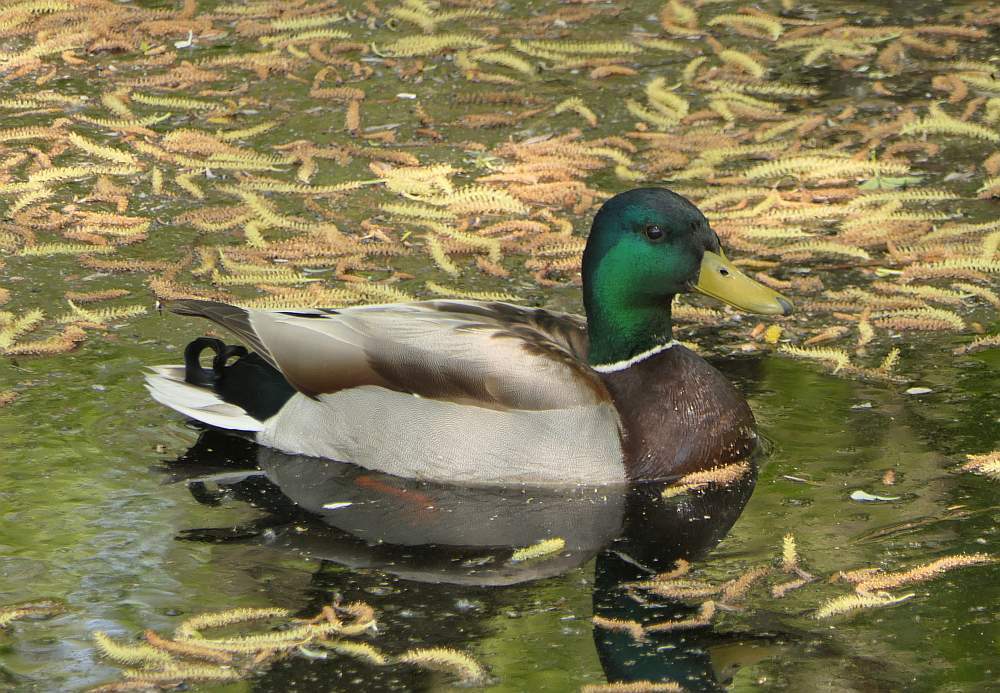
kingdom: Animalia
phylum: Chordata
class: Aves
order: Anseriformes
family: Anatidae
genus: Anas
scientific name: Anas platyrhynchos
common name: Mallard
